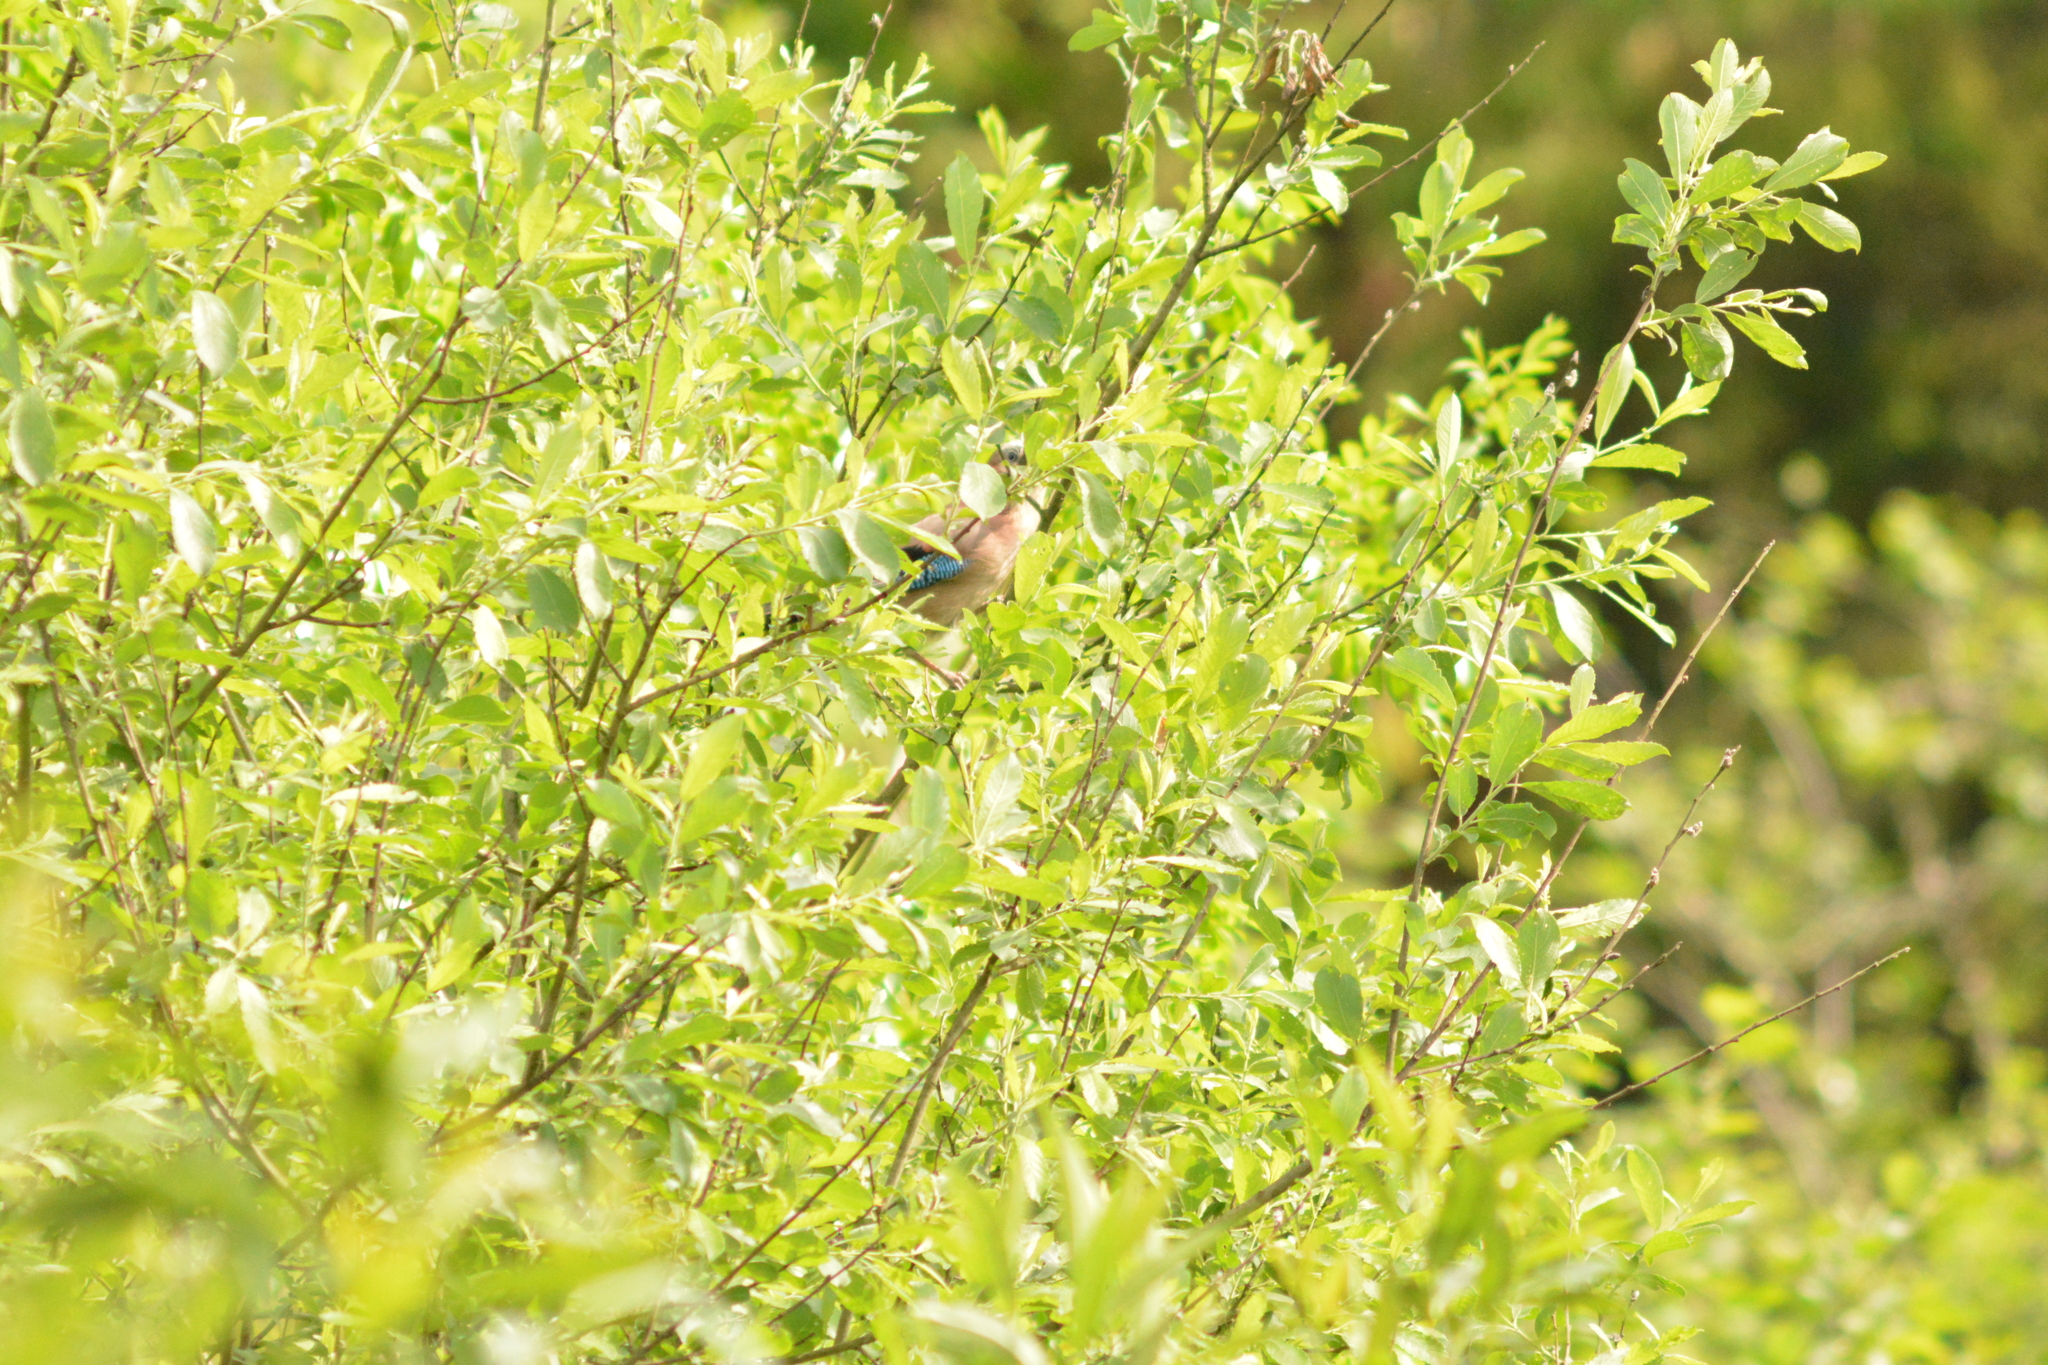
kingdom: Animalia
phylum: Chordata
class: Aves
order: Passeriformes
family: Corvidae
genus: Garrulus
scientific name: Garrulus glandarius
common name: Eurasian jay
